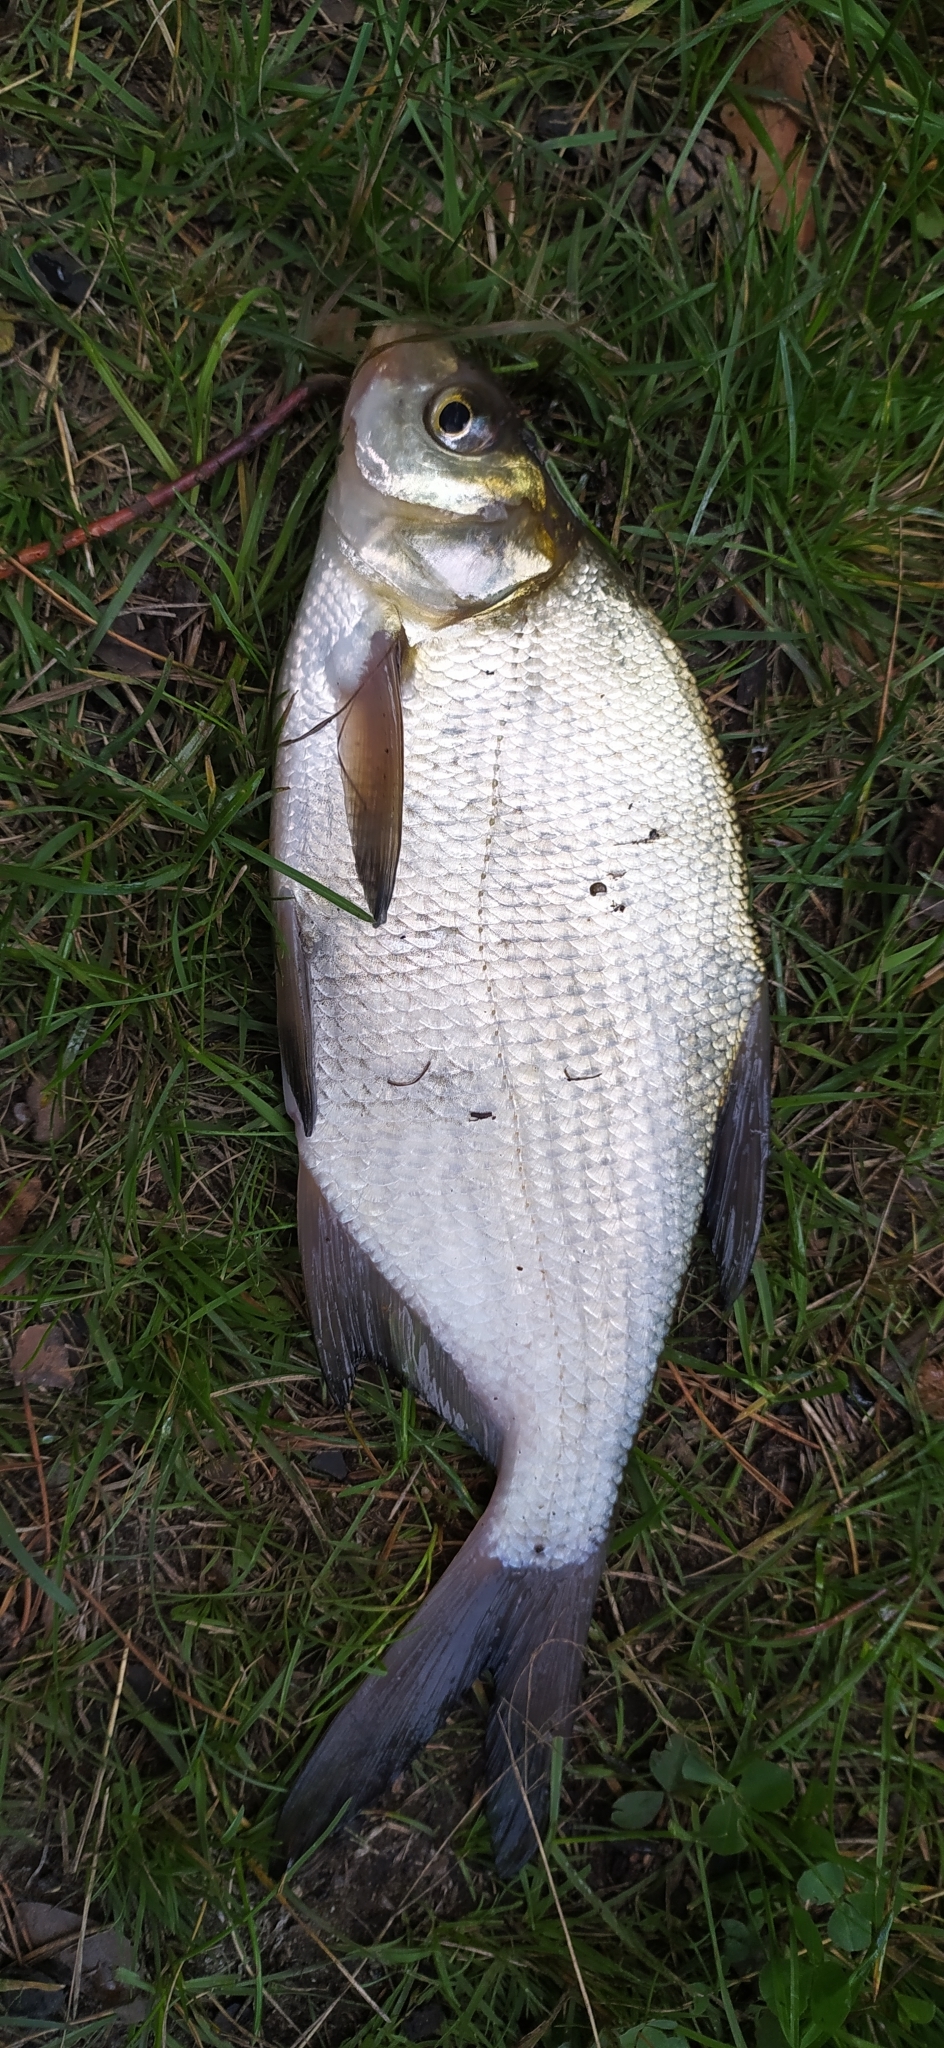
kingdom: Animalia
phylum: Chordata
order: Cypriniformes
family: Cyprinidae
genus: Abramis
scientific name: Abramis brama
